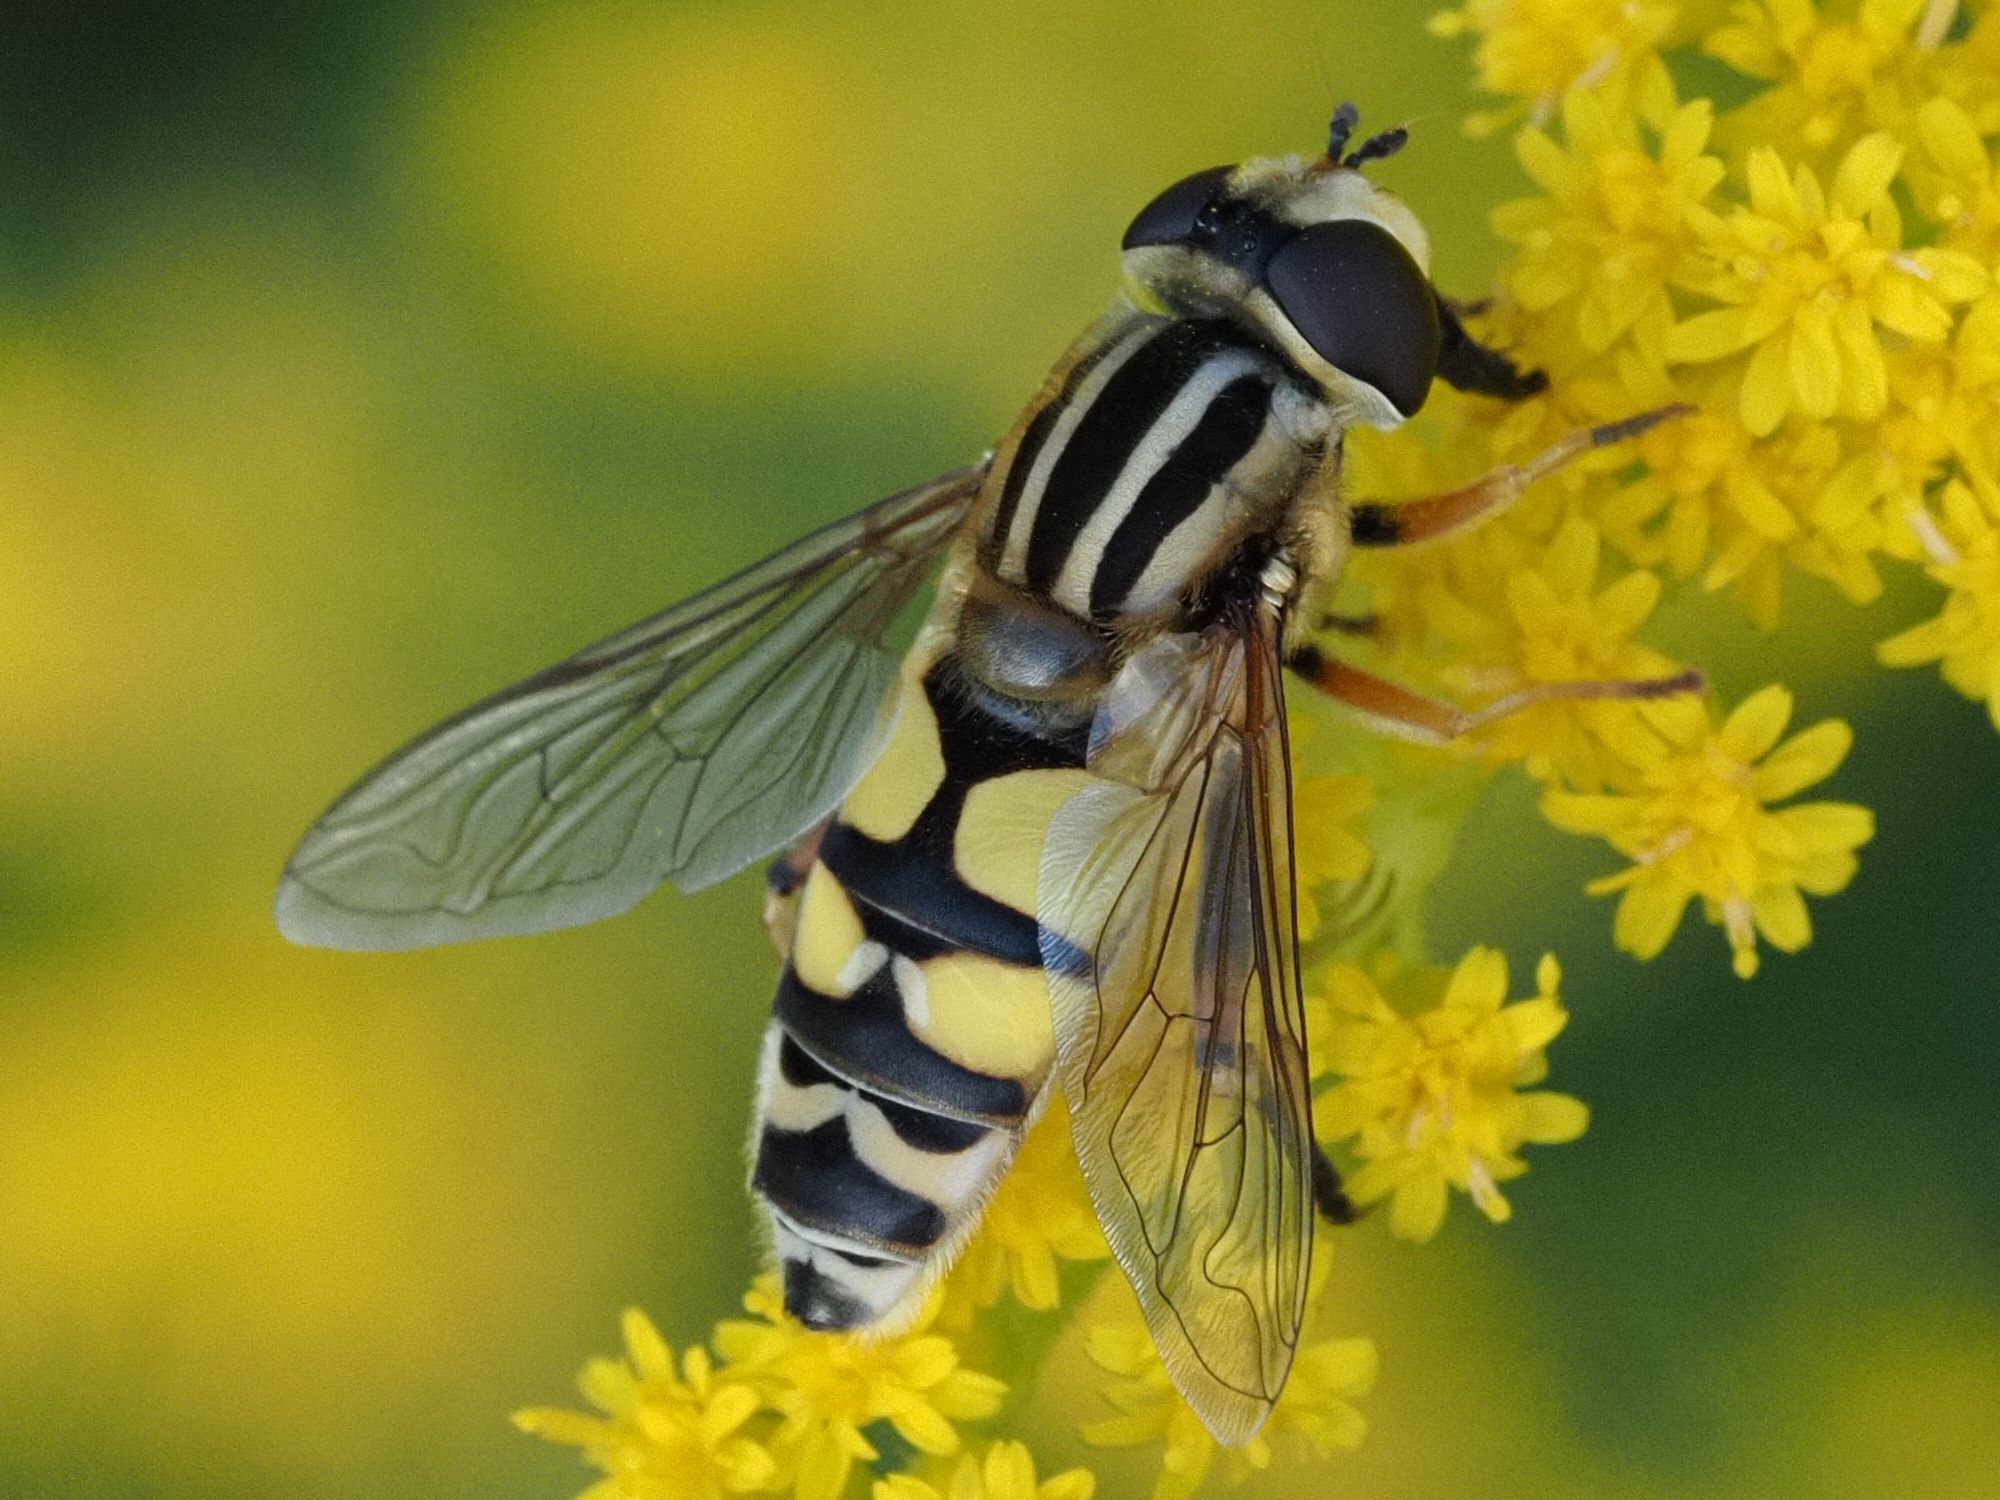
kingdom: Animalia
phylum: Arthropoda
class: Insecta
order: Diptera
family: Syrphidae
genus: Helophilus
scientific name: Helophilus trivittatus
